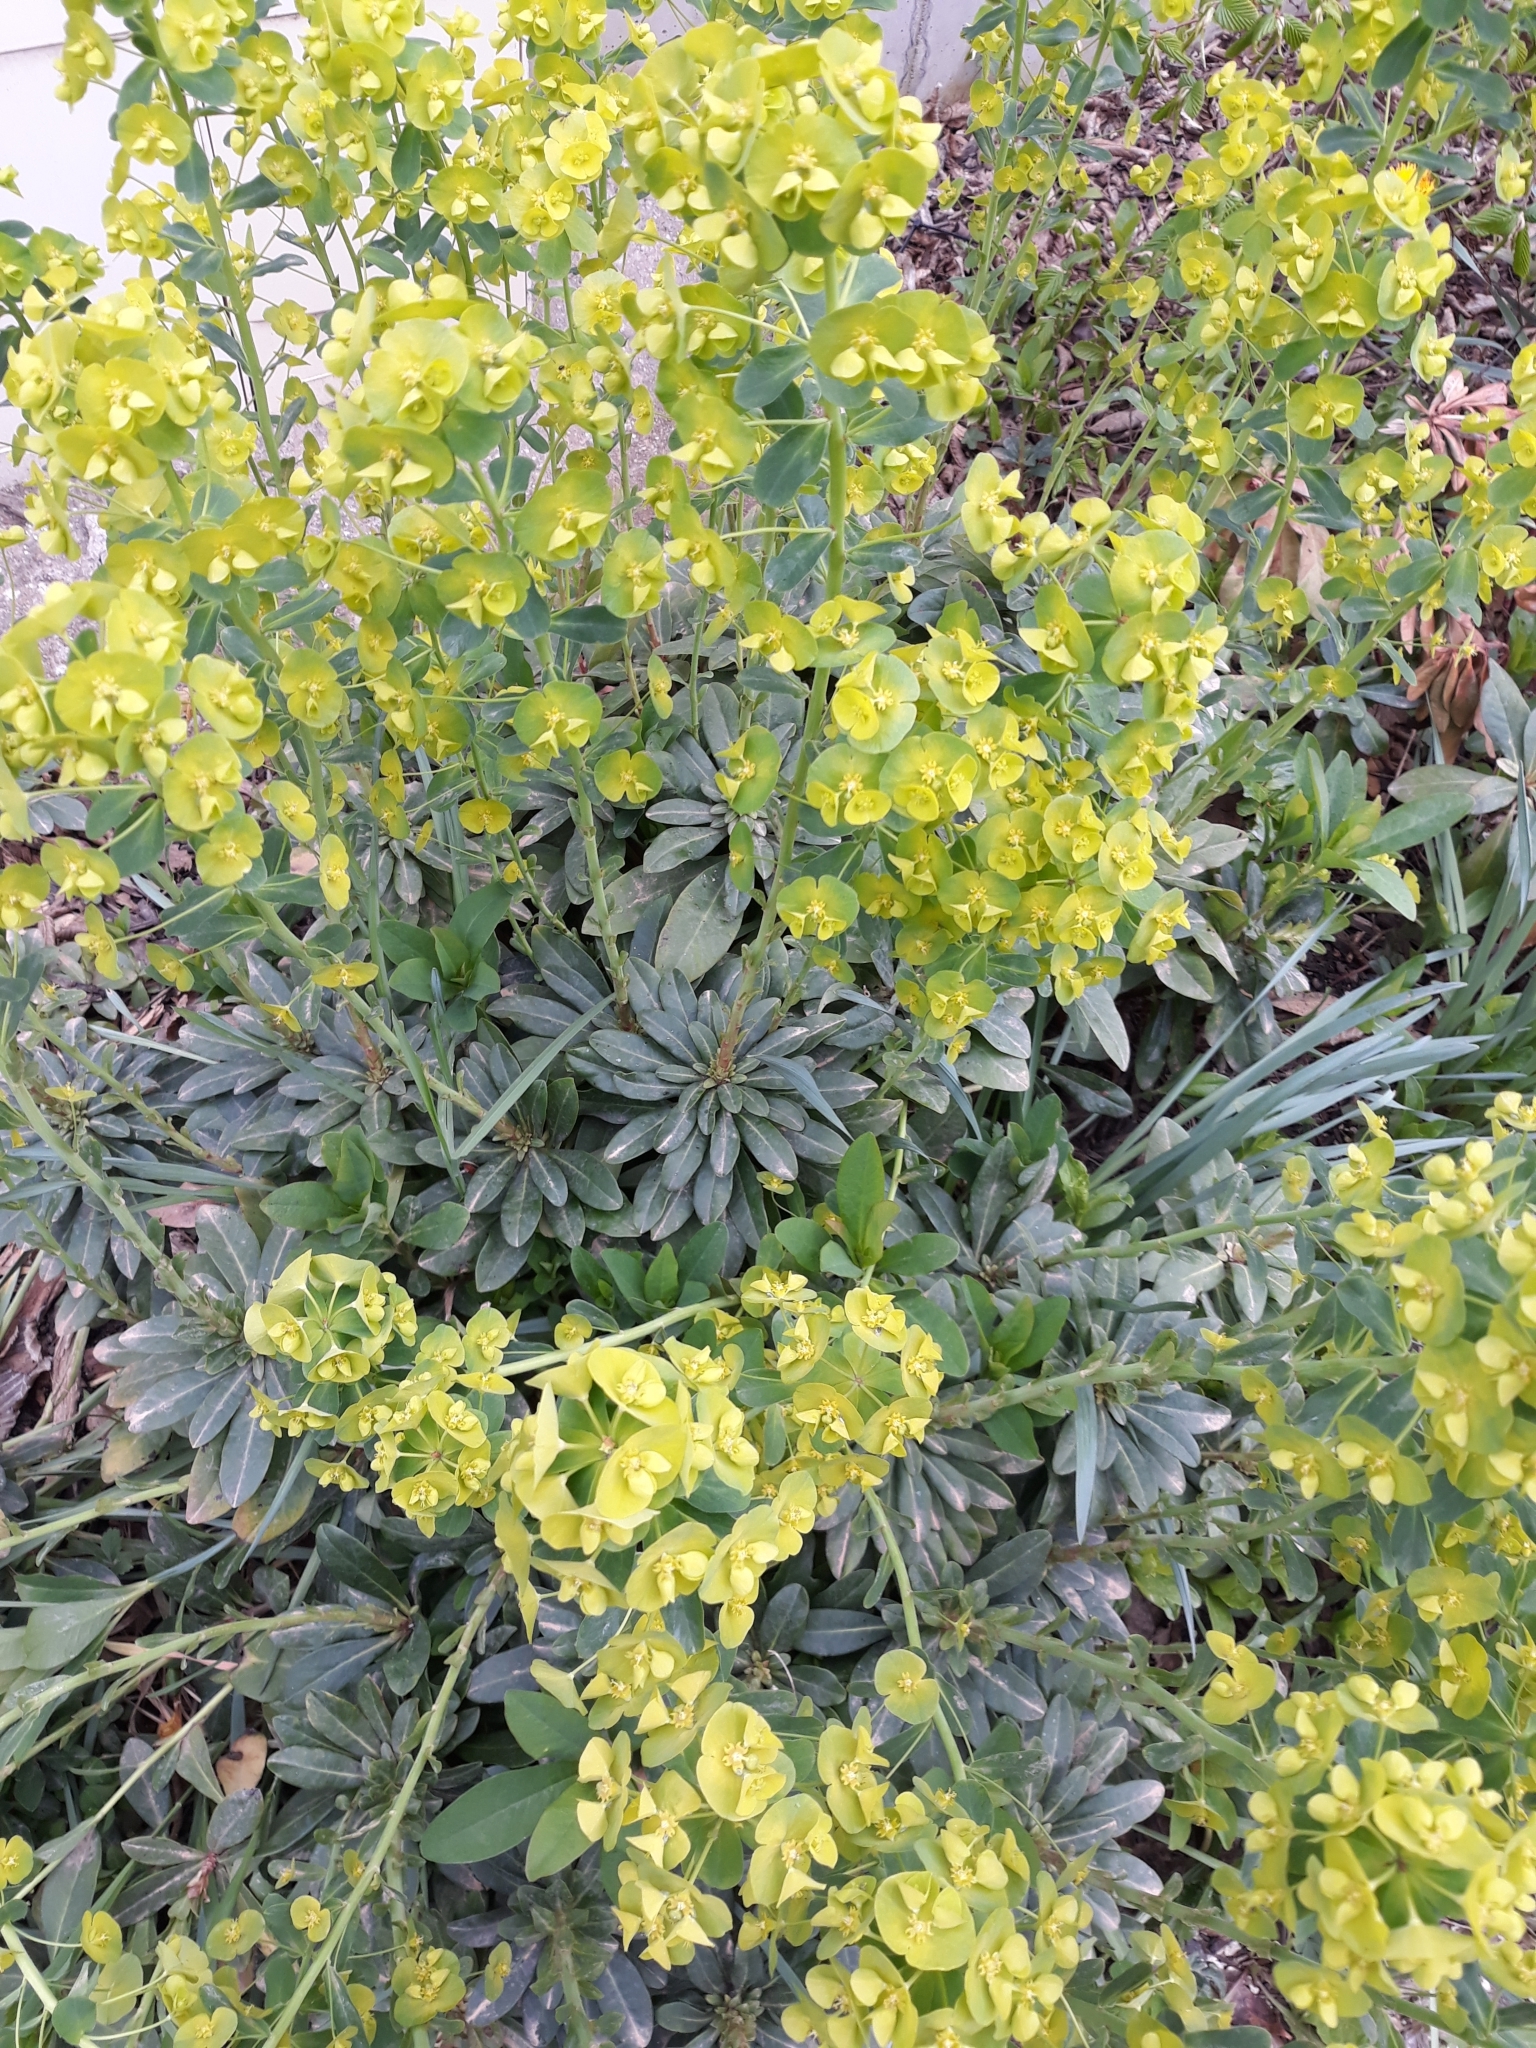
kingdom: Plantae
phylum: Tracheophyta
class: Magnoliopsida
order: Malpighiales
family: Euphorbiaceae
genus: Euphorbia
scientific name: Euphorbia amygdaloides
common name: Wood spurge
